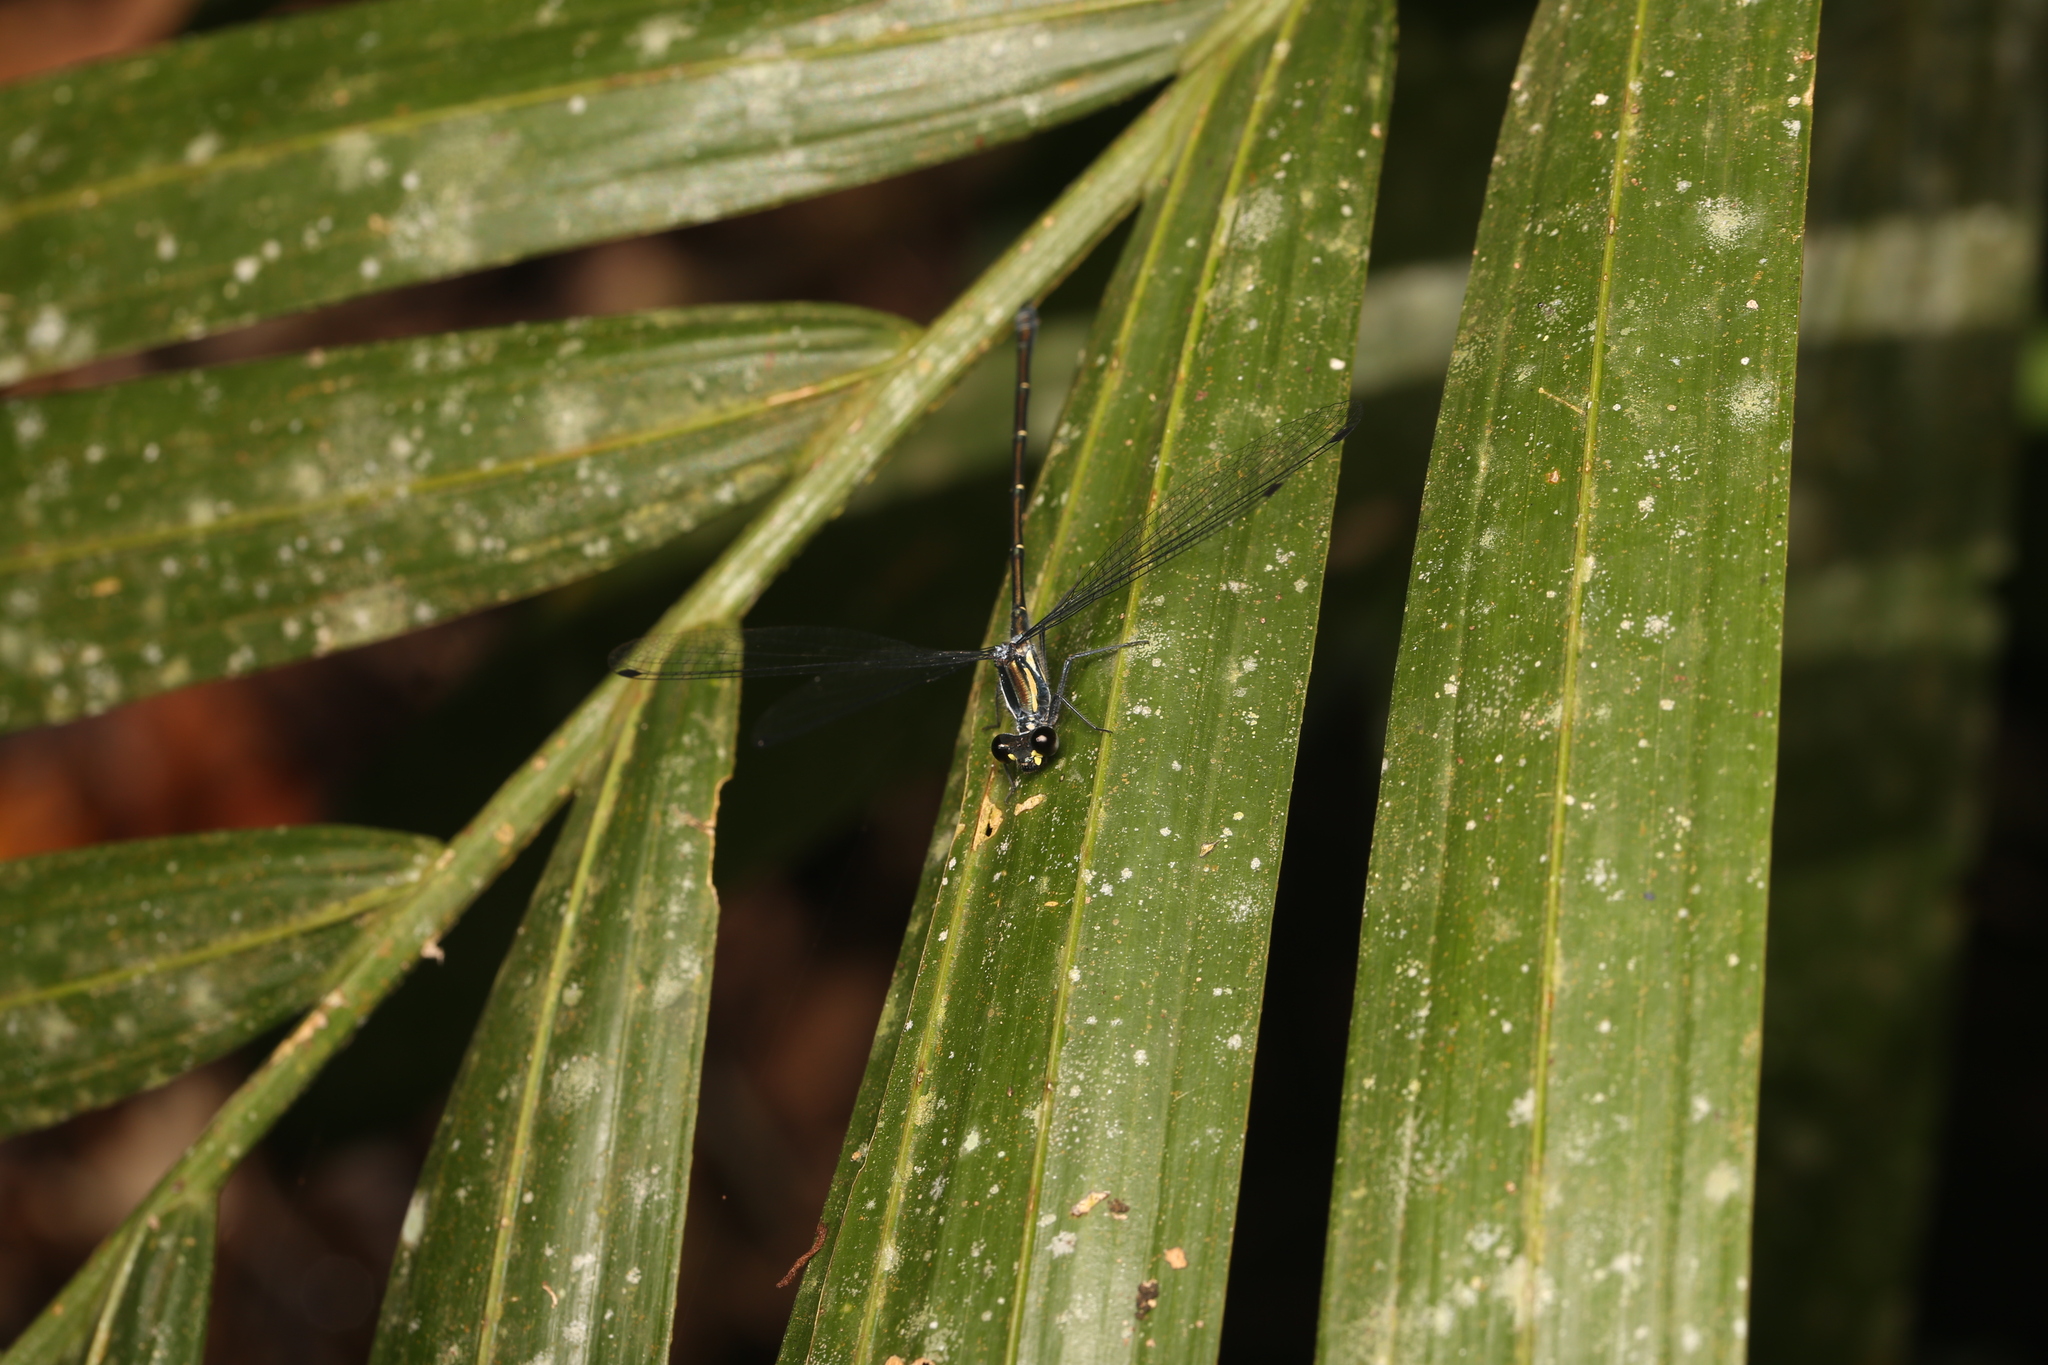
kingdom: Animalia
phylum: Arthropoda
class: Insecta
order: Odonata
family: Argiolestidae
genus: Austroargiolestes
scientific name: Austroargiolestes icteromelas
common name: Common flatwing
